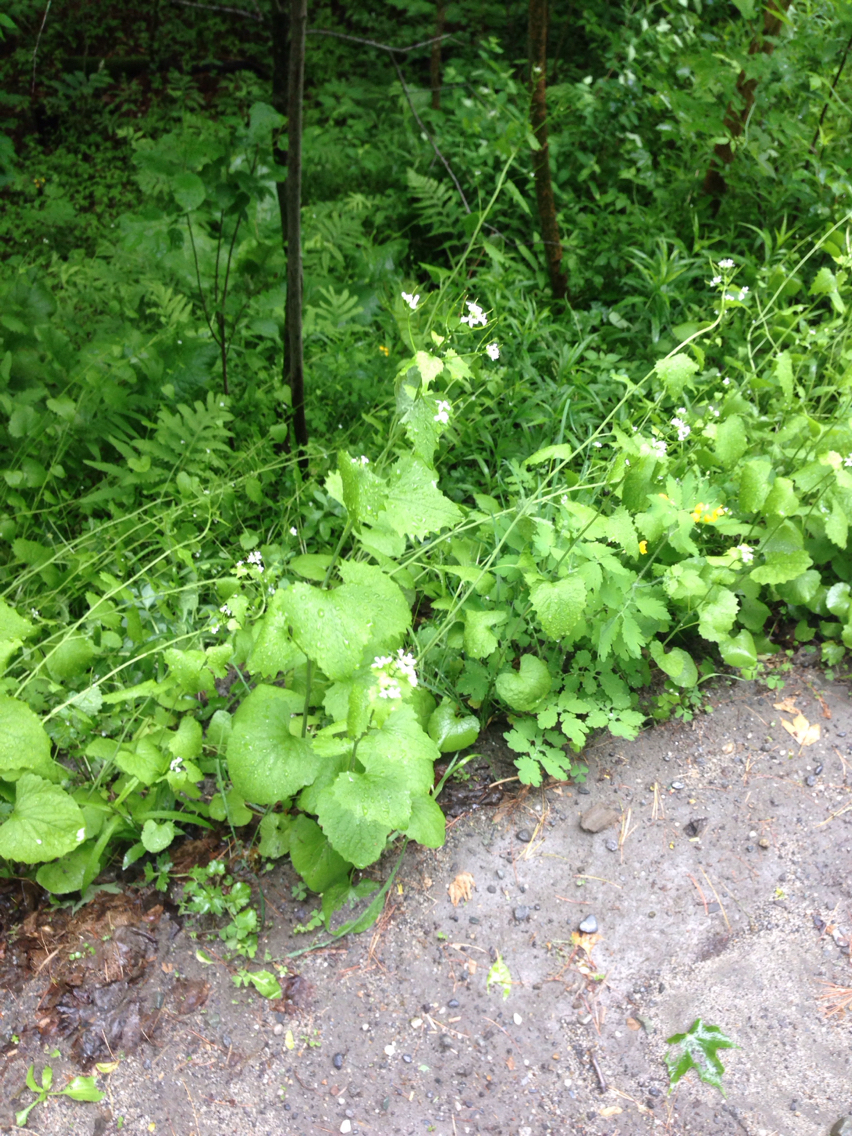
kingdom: Plantae
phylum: Tracheophyta
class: Magnoliopsida
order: Brassicales
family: Brassicaceae
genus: Alliaria
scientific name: Alliaria petiolata
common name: Garlic mustard
